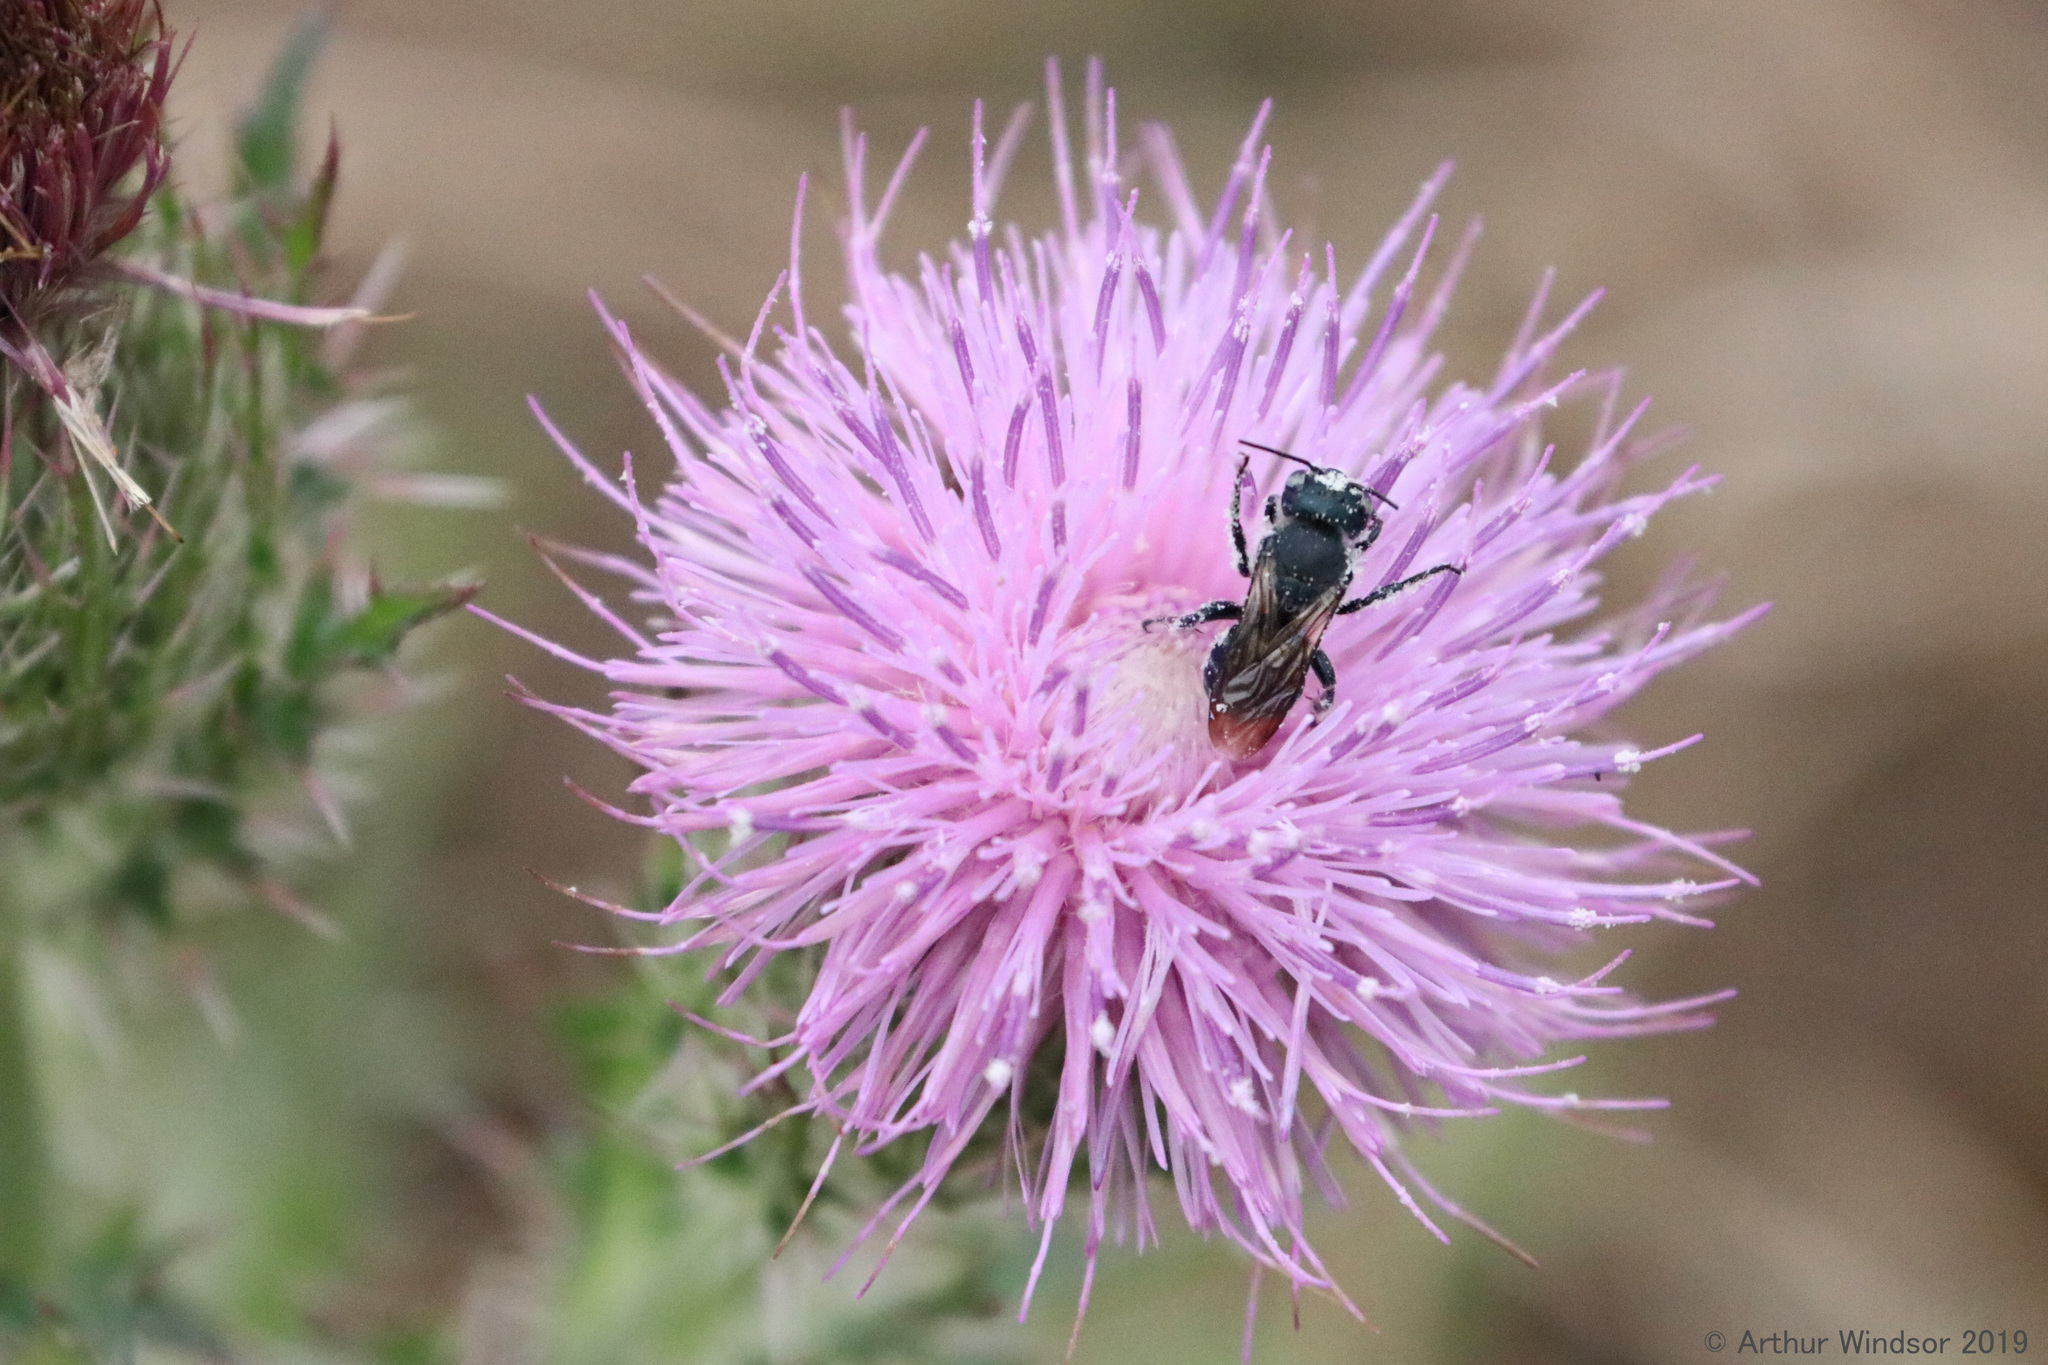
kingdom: Animalia
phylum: Arthropoda
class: Insecta
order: Hymenoptera
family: Megachilidae
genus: Osmia
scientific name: Osmia chalybea
